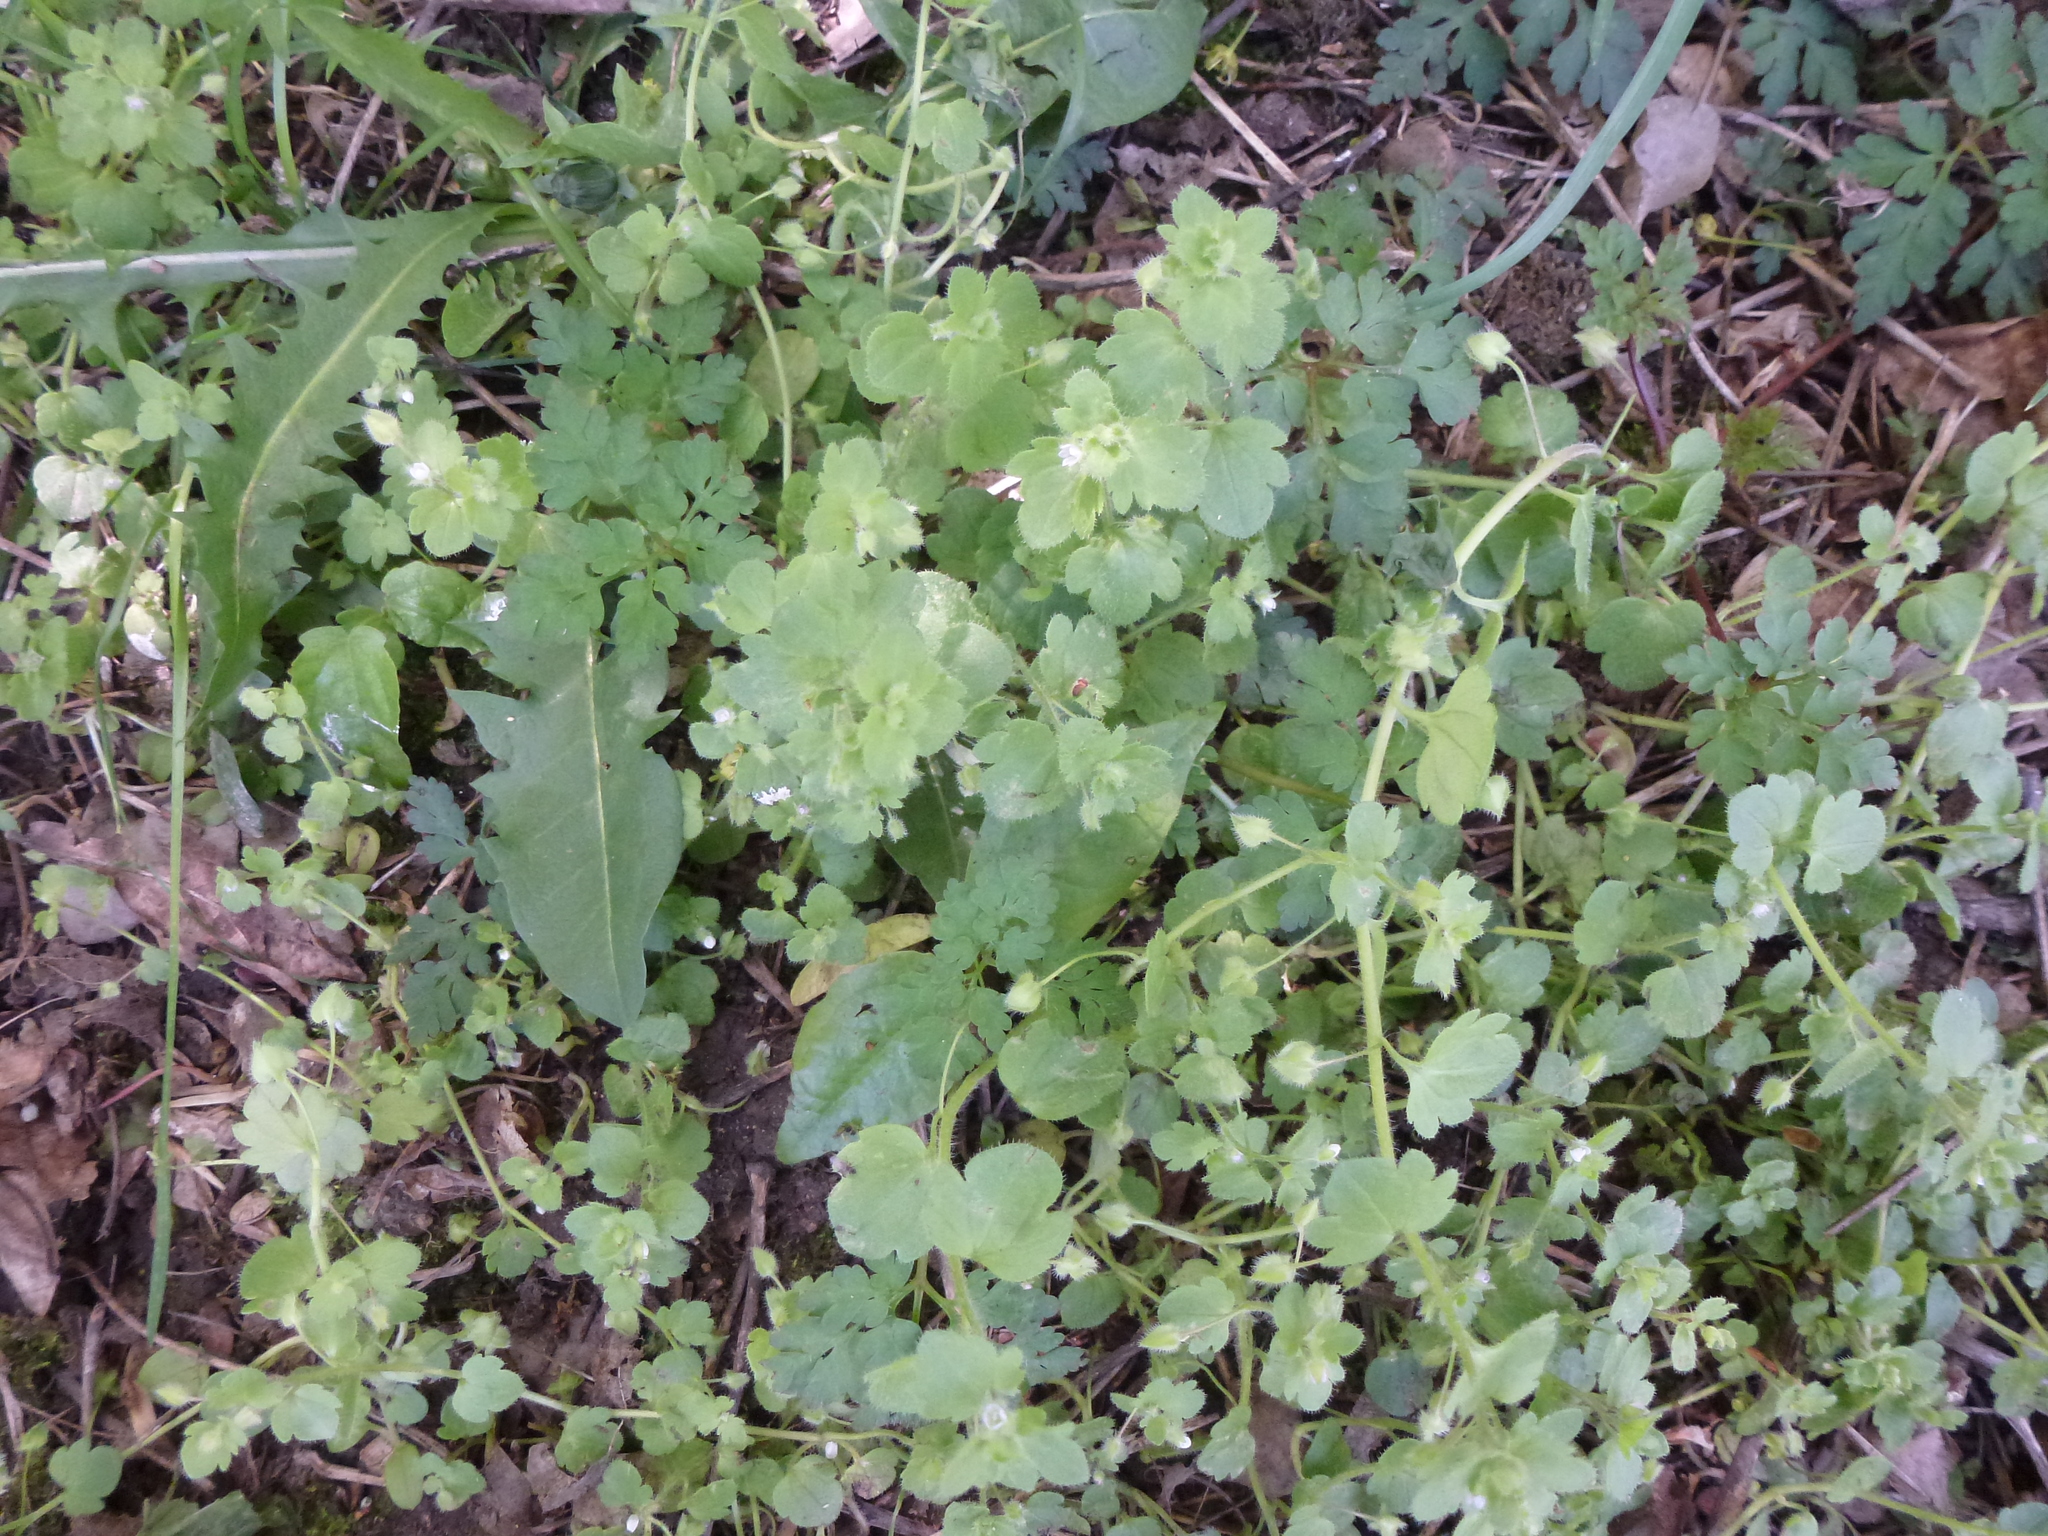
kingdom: Plantae
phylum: Tracheophyta
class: Magnoliopsida
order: Lamiales
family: Plantaginaceae
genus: Veronica
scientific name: Veronica hederifolia
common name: Ivy-leaved speedwell
